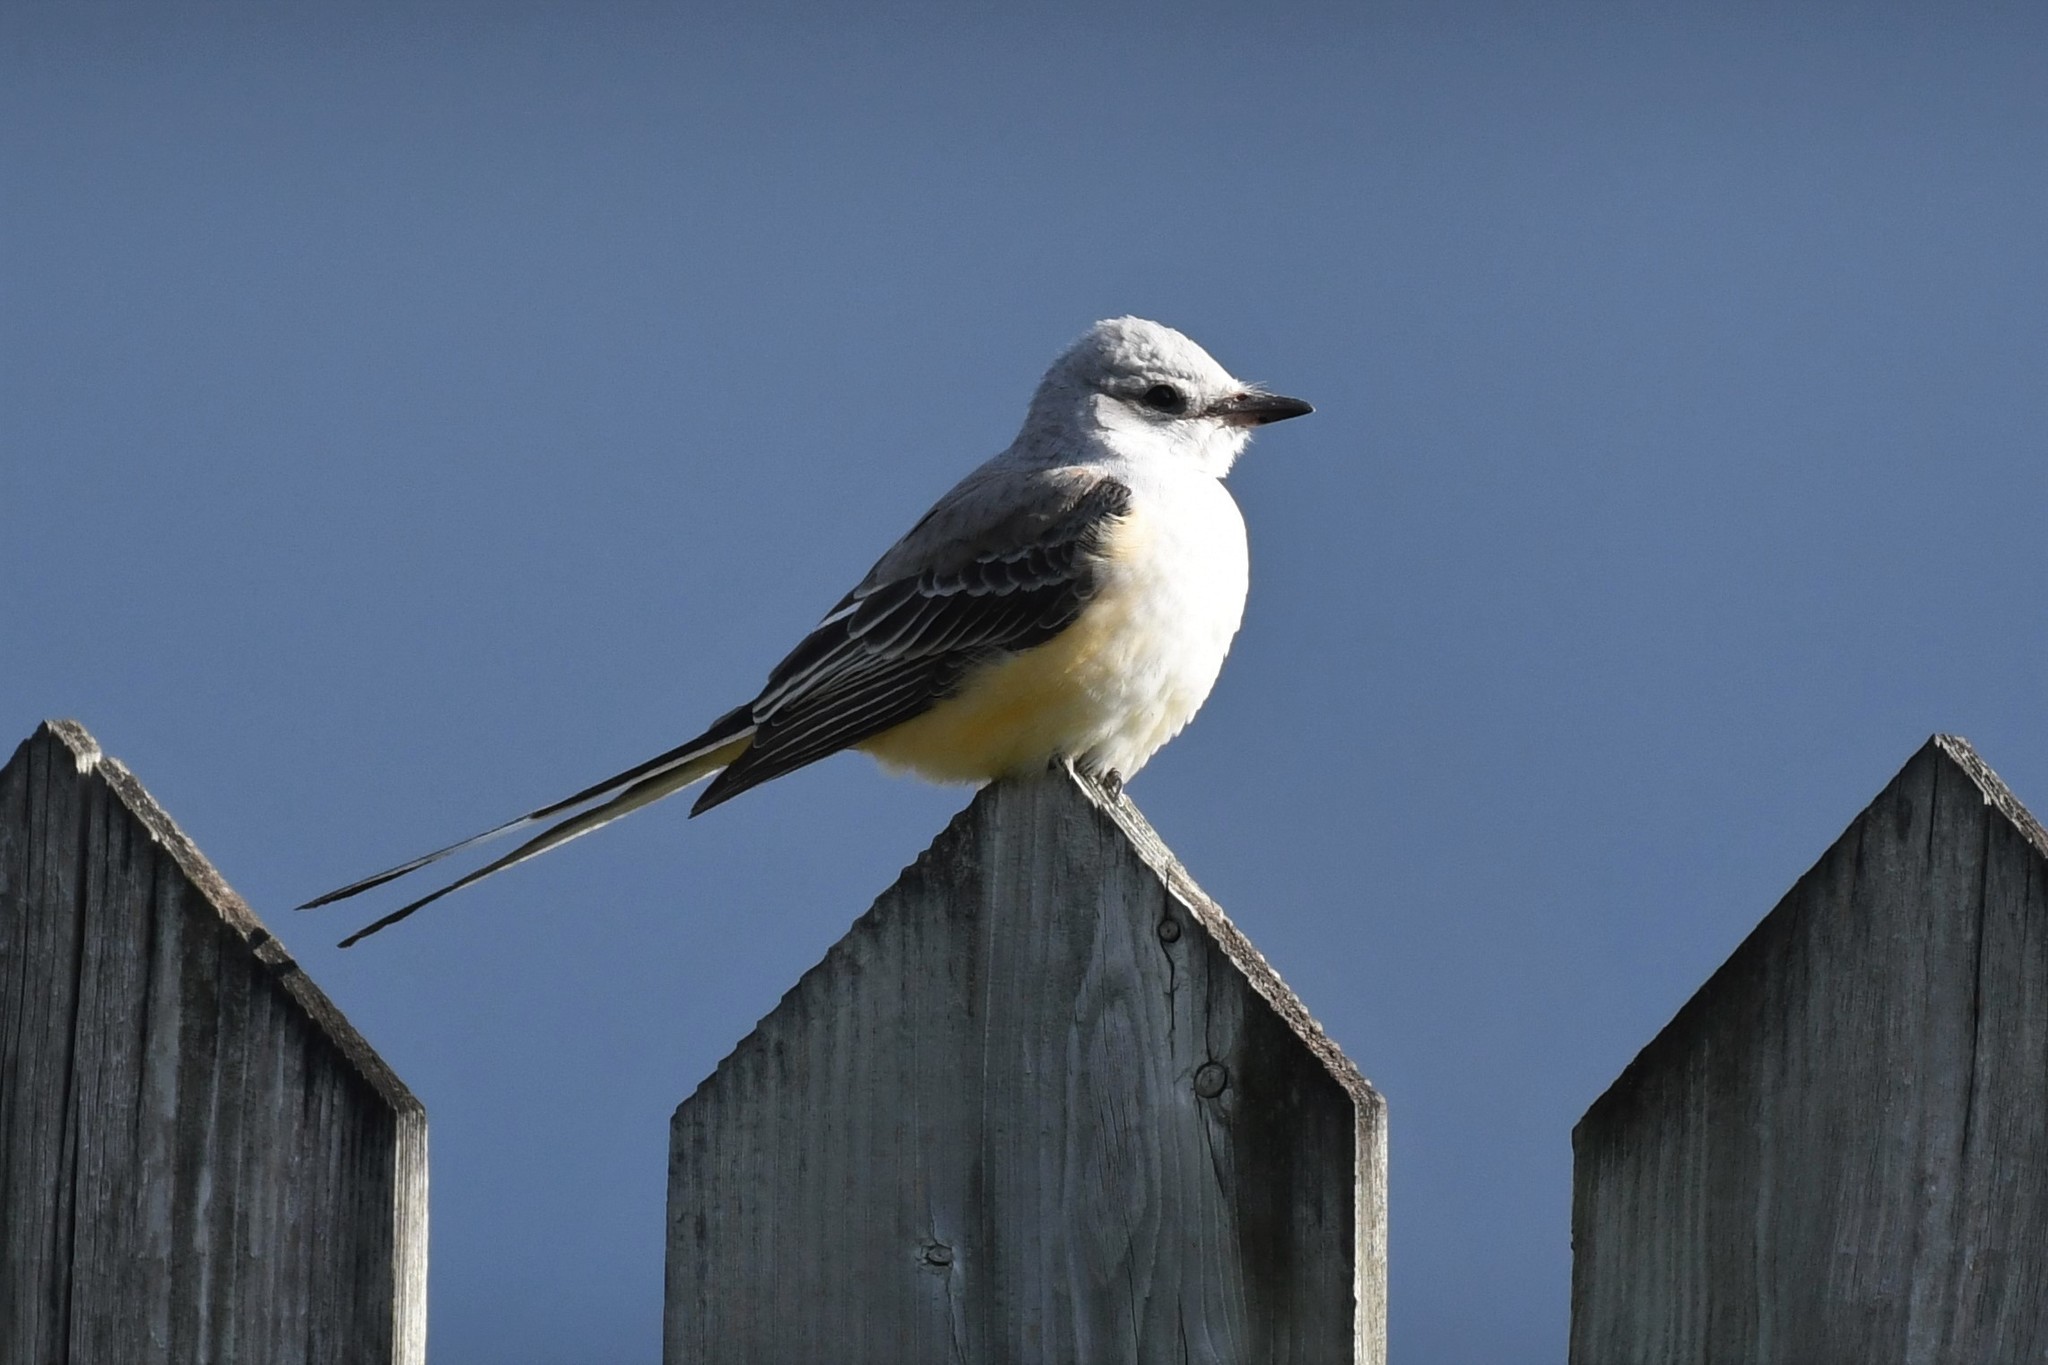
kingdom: Animalia
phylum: Chordata
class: Aves
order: Passeriformes
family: Tyrannidae
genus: Tyrannus
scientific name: Tyrannus forficatus
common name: Scissor-tailed flycatcher
